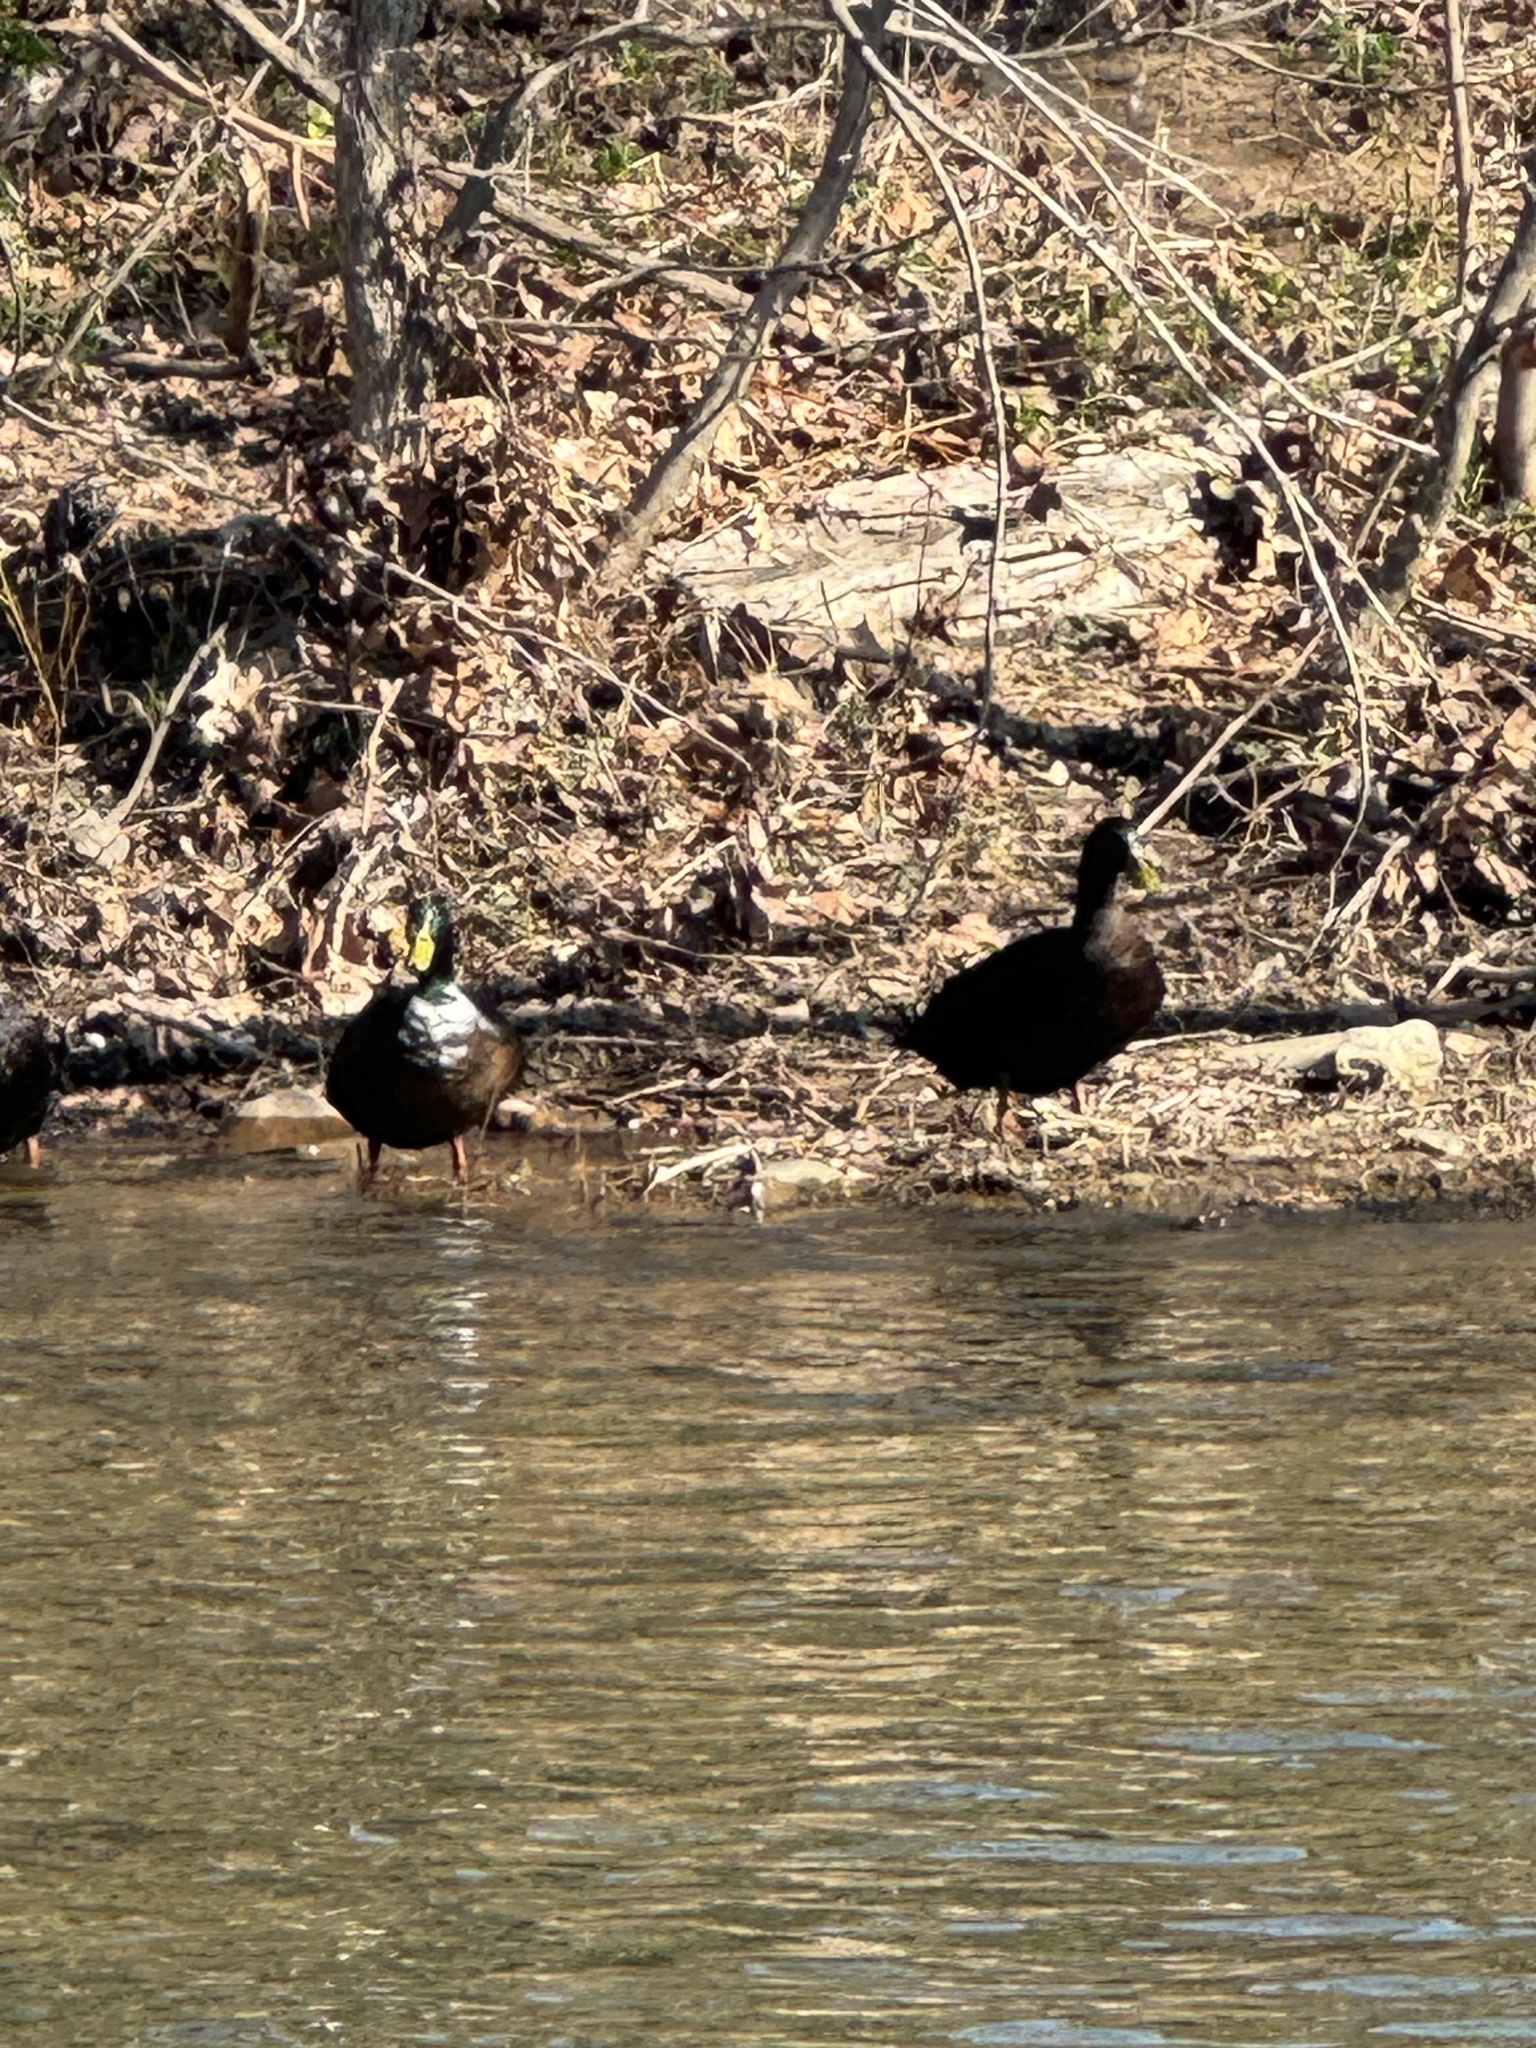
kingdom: Animalia
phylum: Chordata
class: Aves
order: Anseriformes
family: Anatidae
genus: Anas
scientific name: Anas platyrhynchos
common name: Mallard
